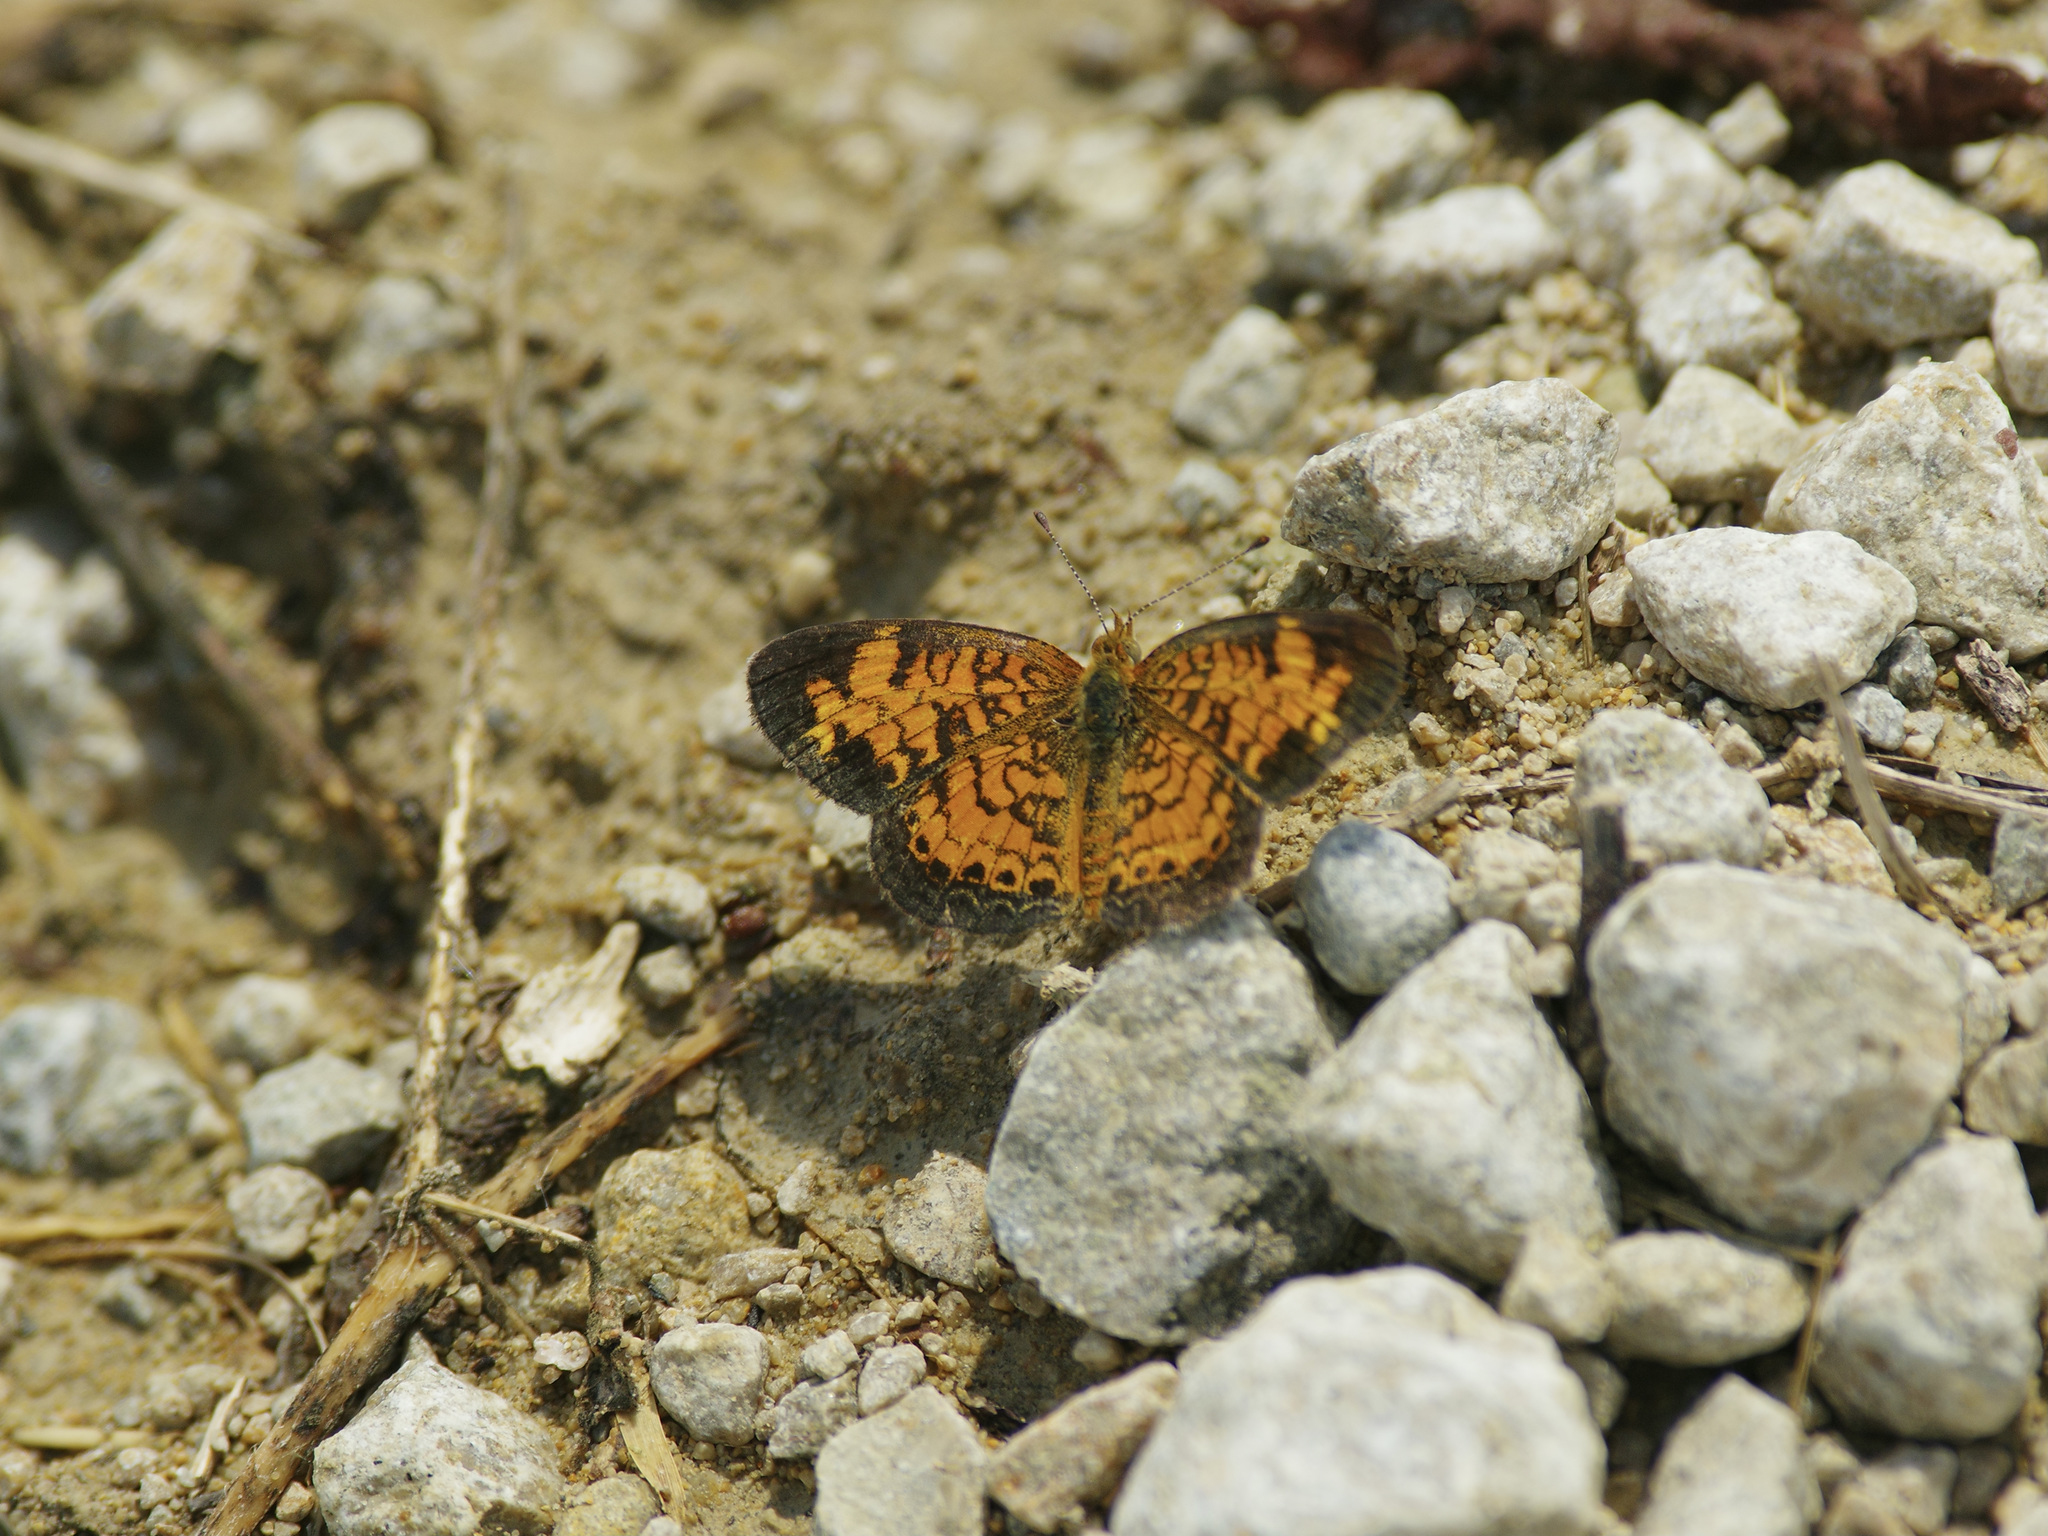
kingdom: Animalia
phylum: Arthropoda
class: Insecta
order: Lepidoptera
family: Nymphalidae
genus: Phyciodes
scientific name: Phyciodes tharos
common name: Pearl crescent
